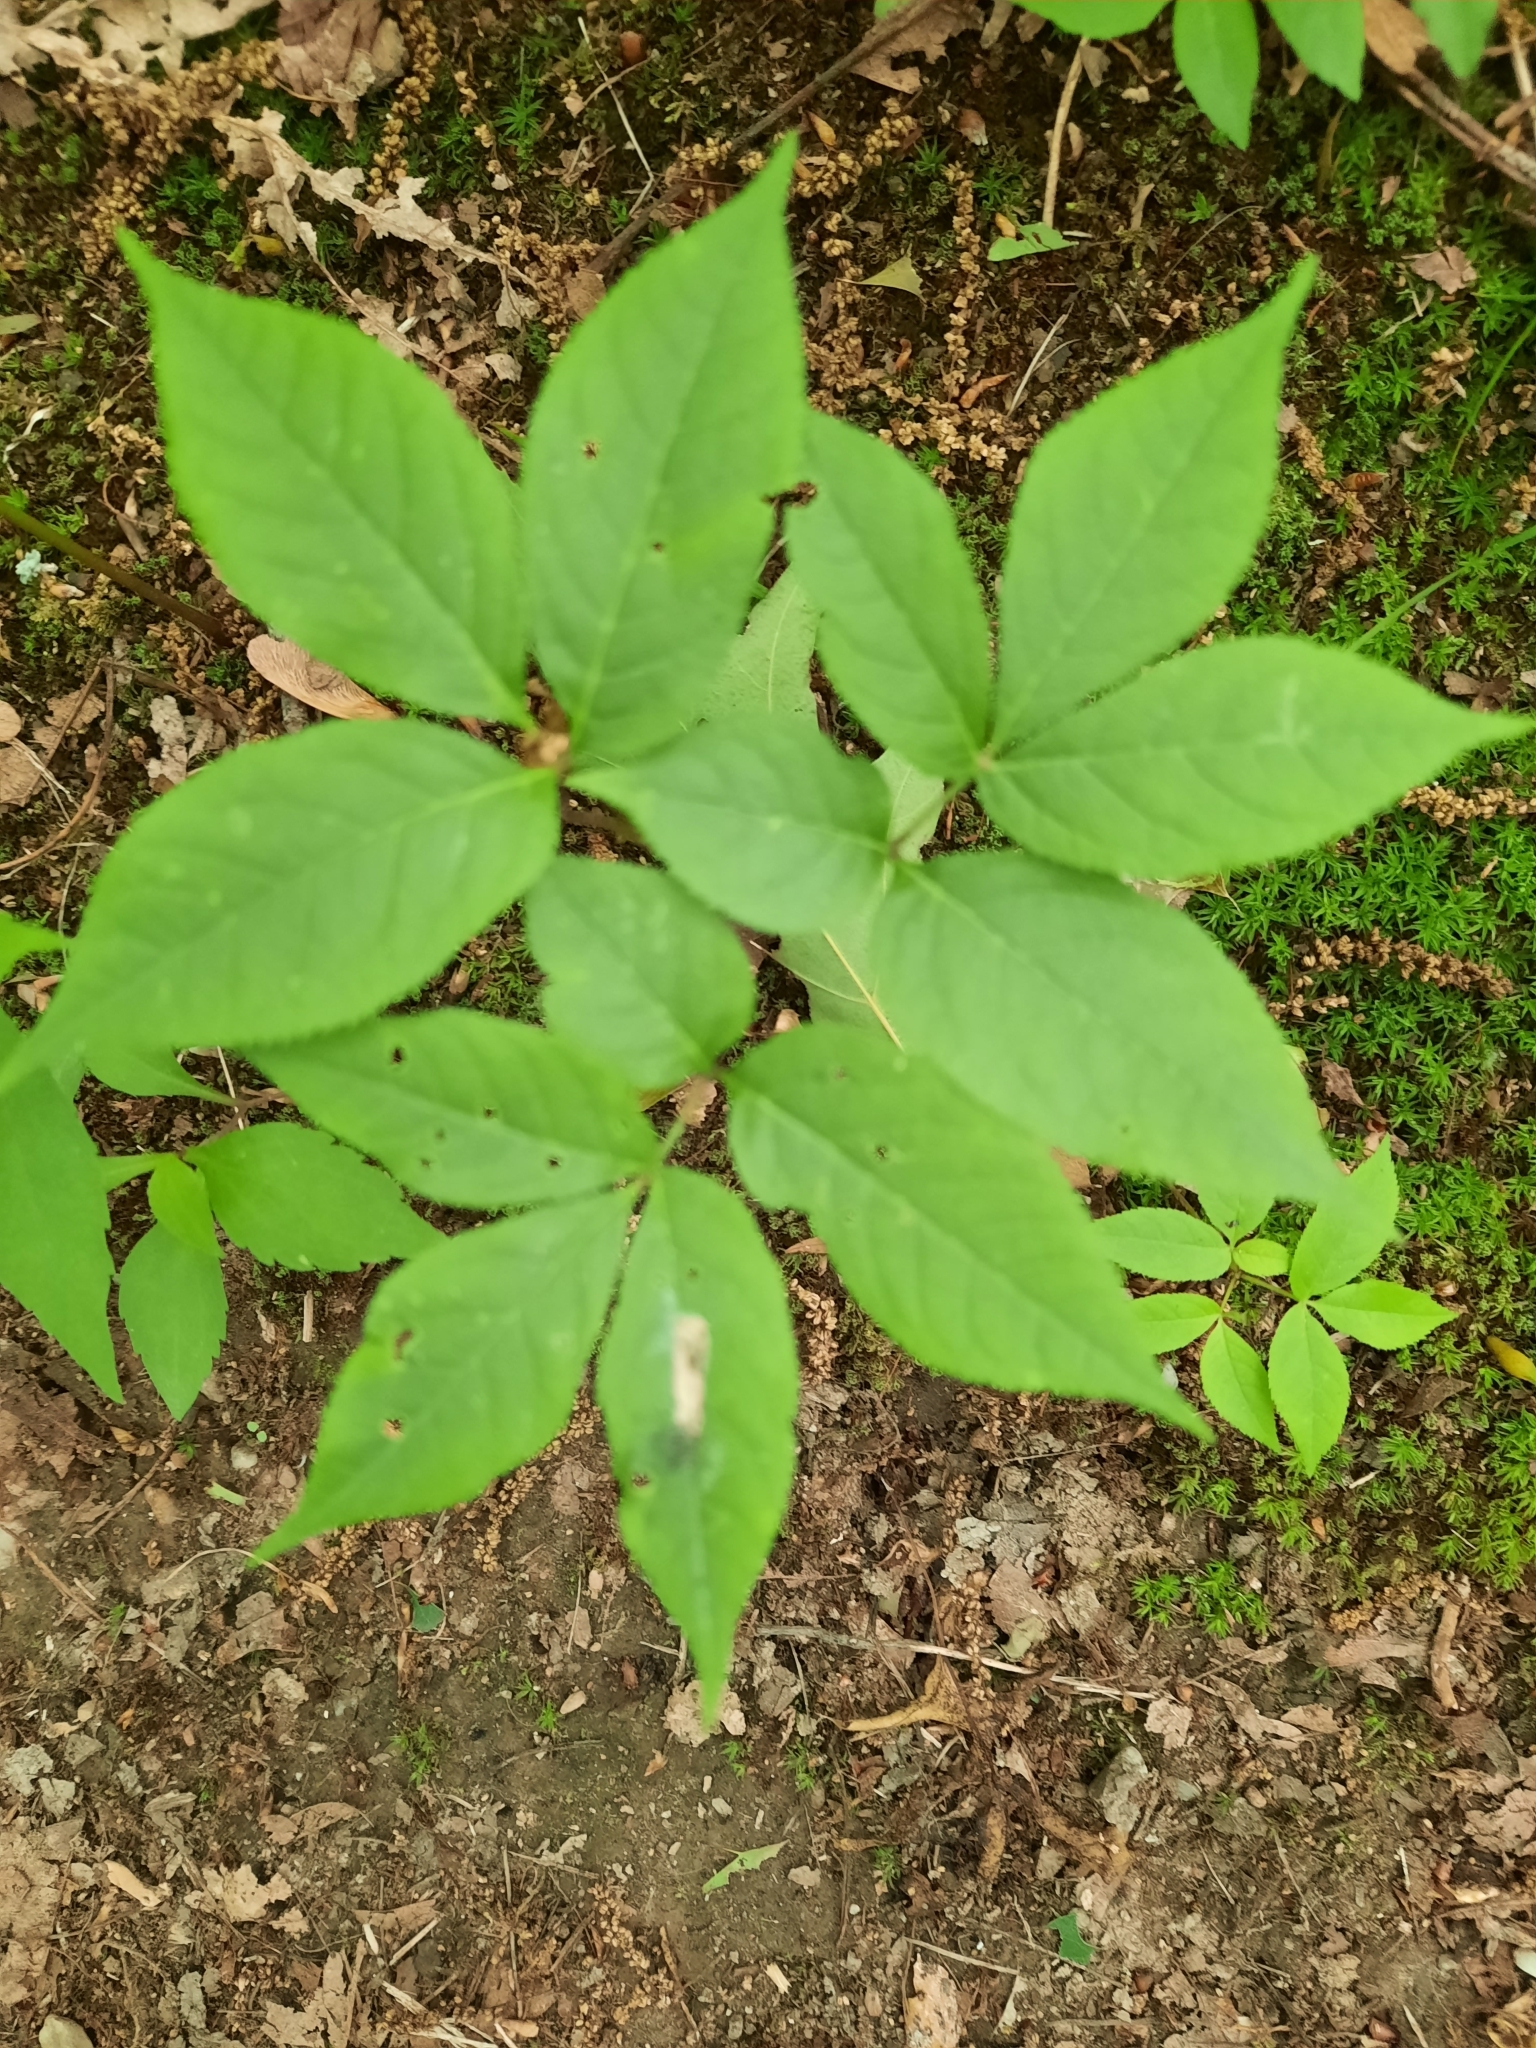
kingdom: Plantae
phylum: Tracheophyta
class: Magnoliopsida
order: Apiales
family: Araliaceae
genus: Aralia
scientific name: Aralia nudicaulis
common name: Wild sarsaparilla
